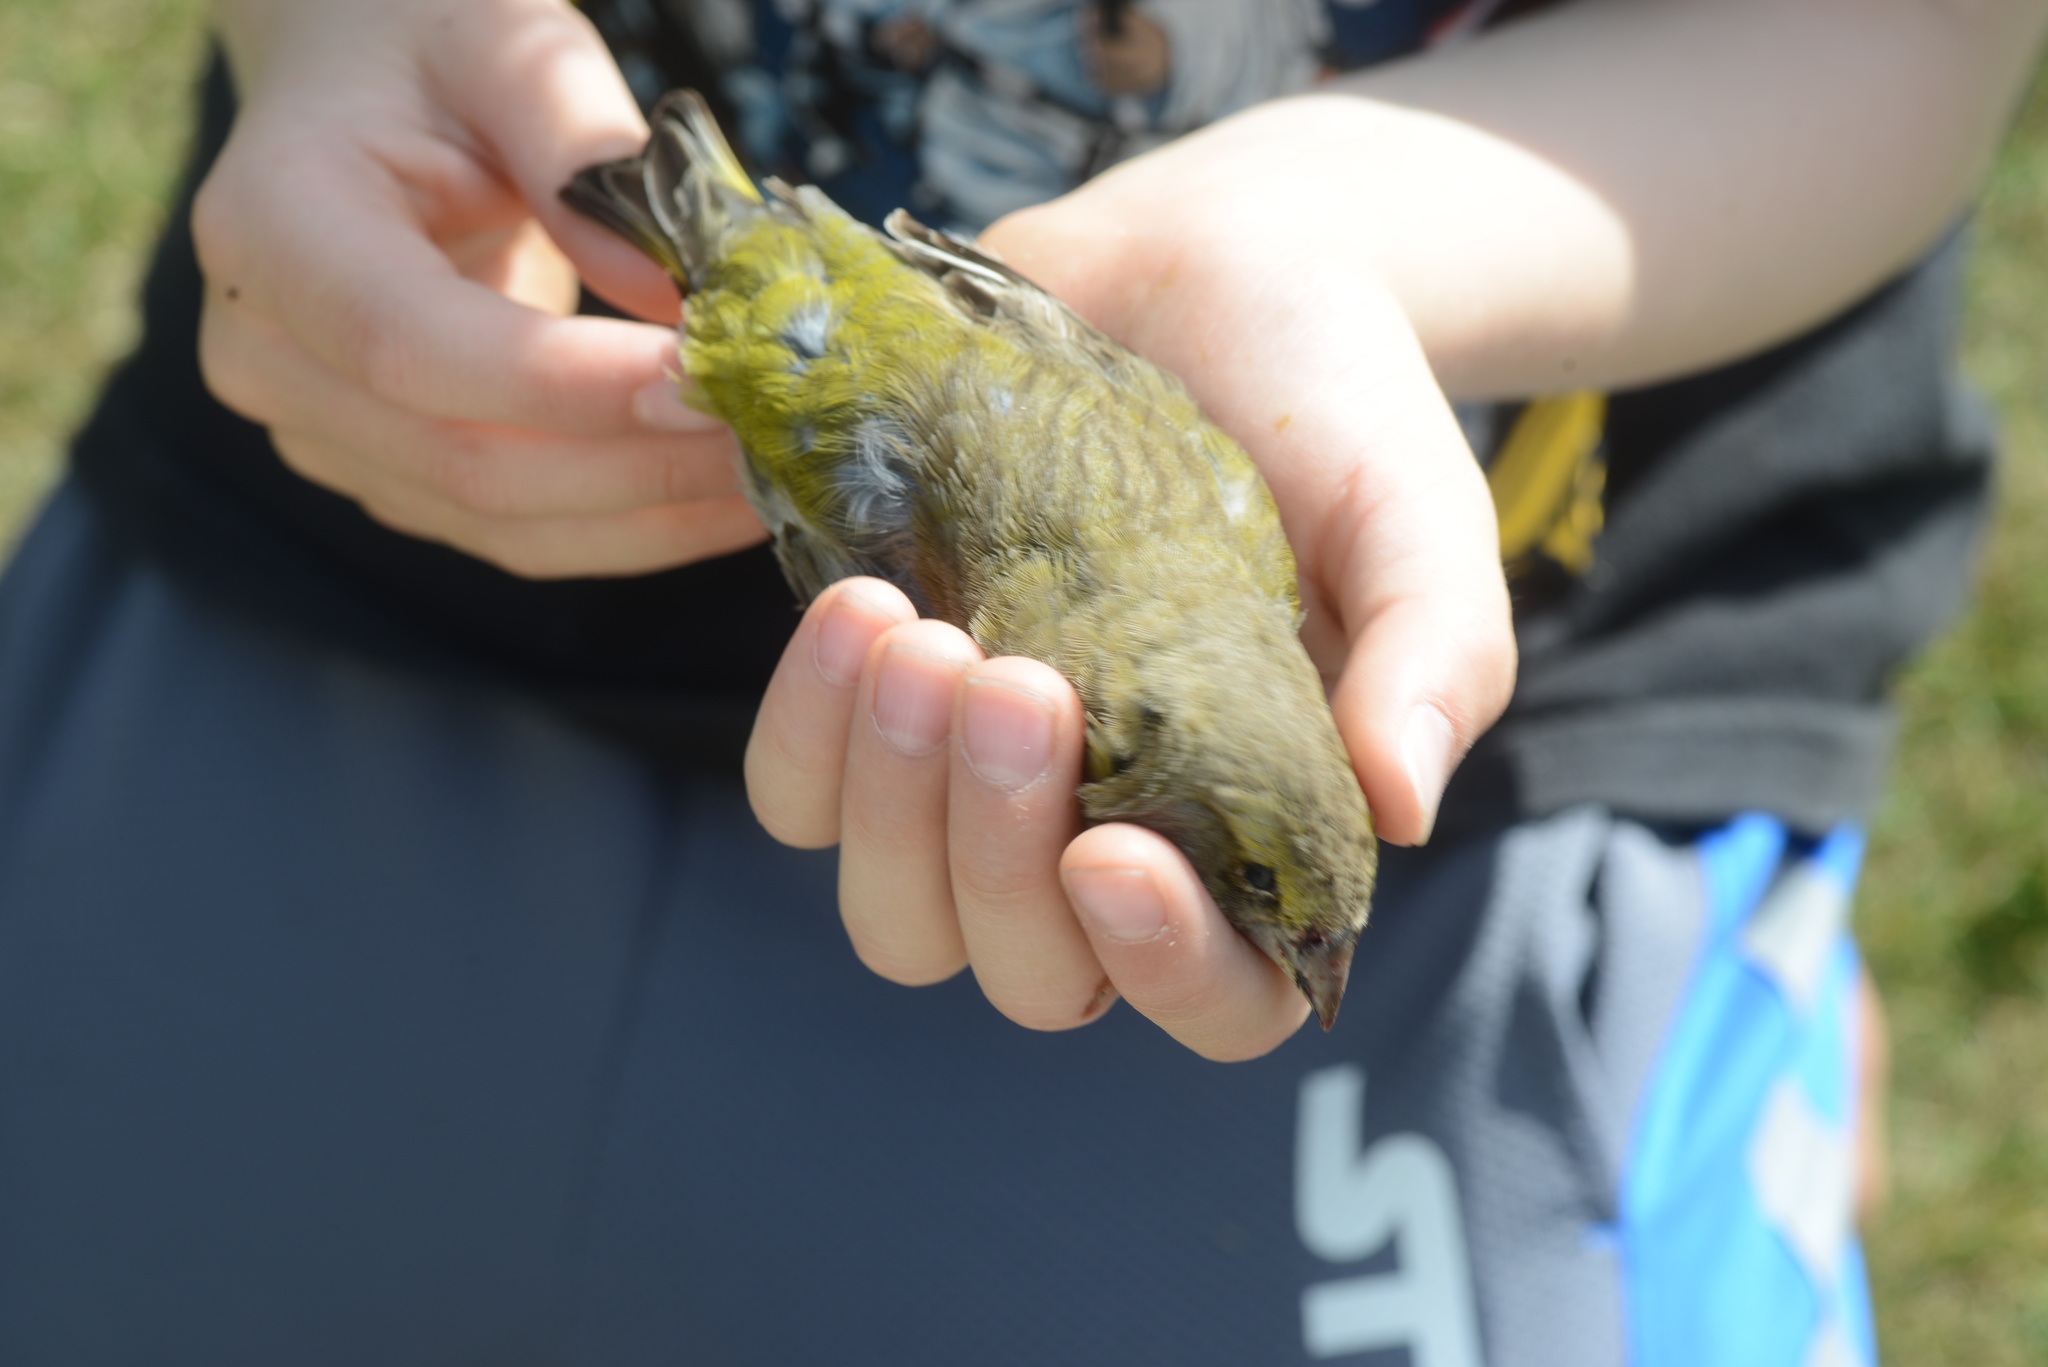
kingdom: Plantae
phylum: Tracheophyta
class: Liliopsida
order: Poales
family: Poaceae
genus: Chloris
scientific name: Chloris chloris
